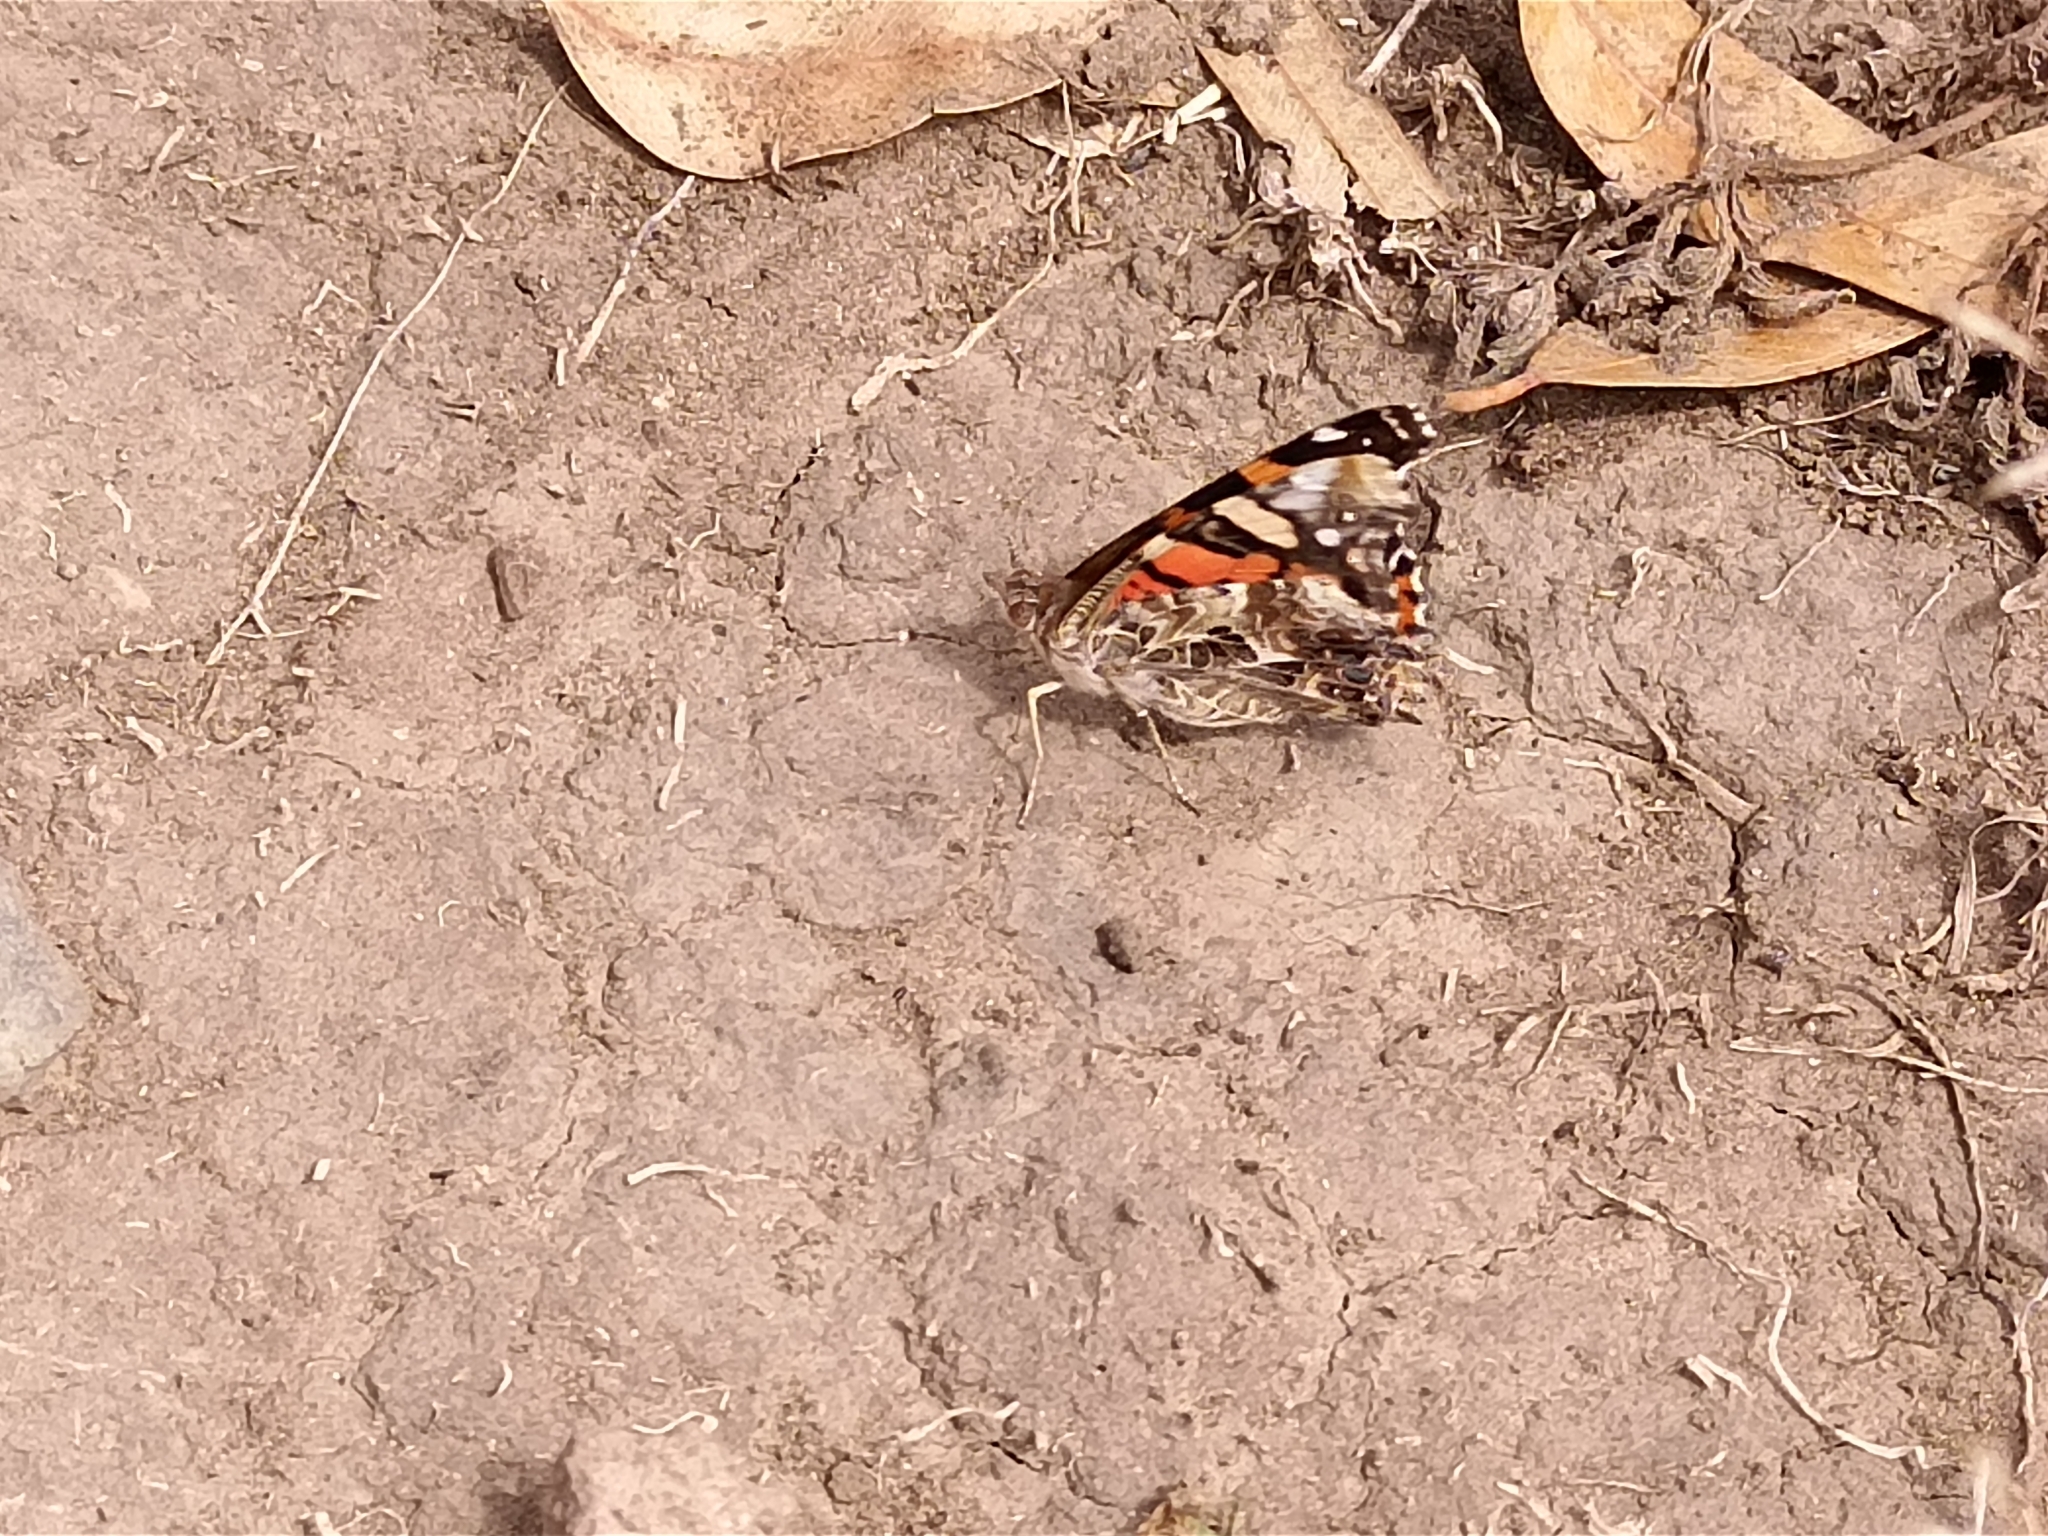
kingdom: Animalia
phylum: Arthropoda
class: Insecta
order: Lepidoptera
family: Nymphalidae
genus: Vanessa
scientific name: Vanessa annabella
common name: West coast lady
